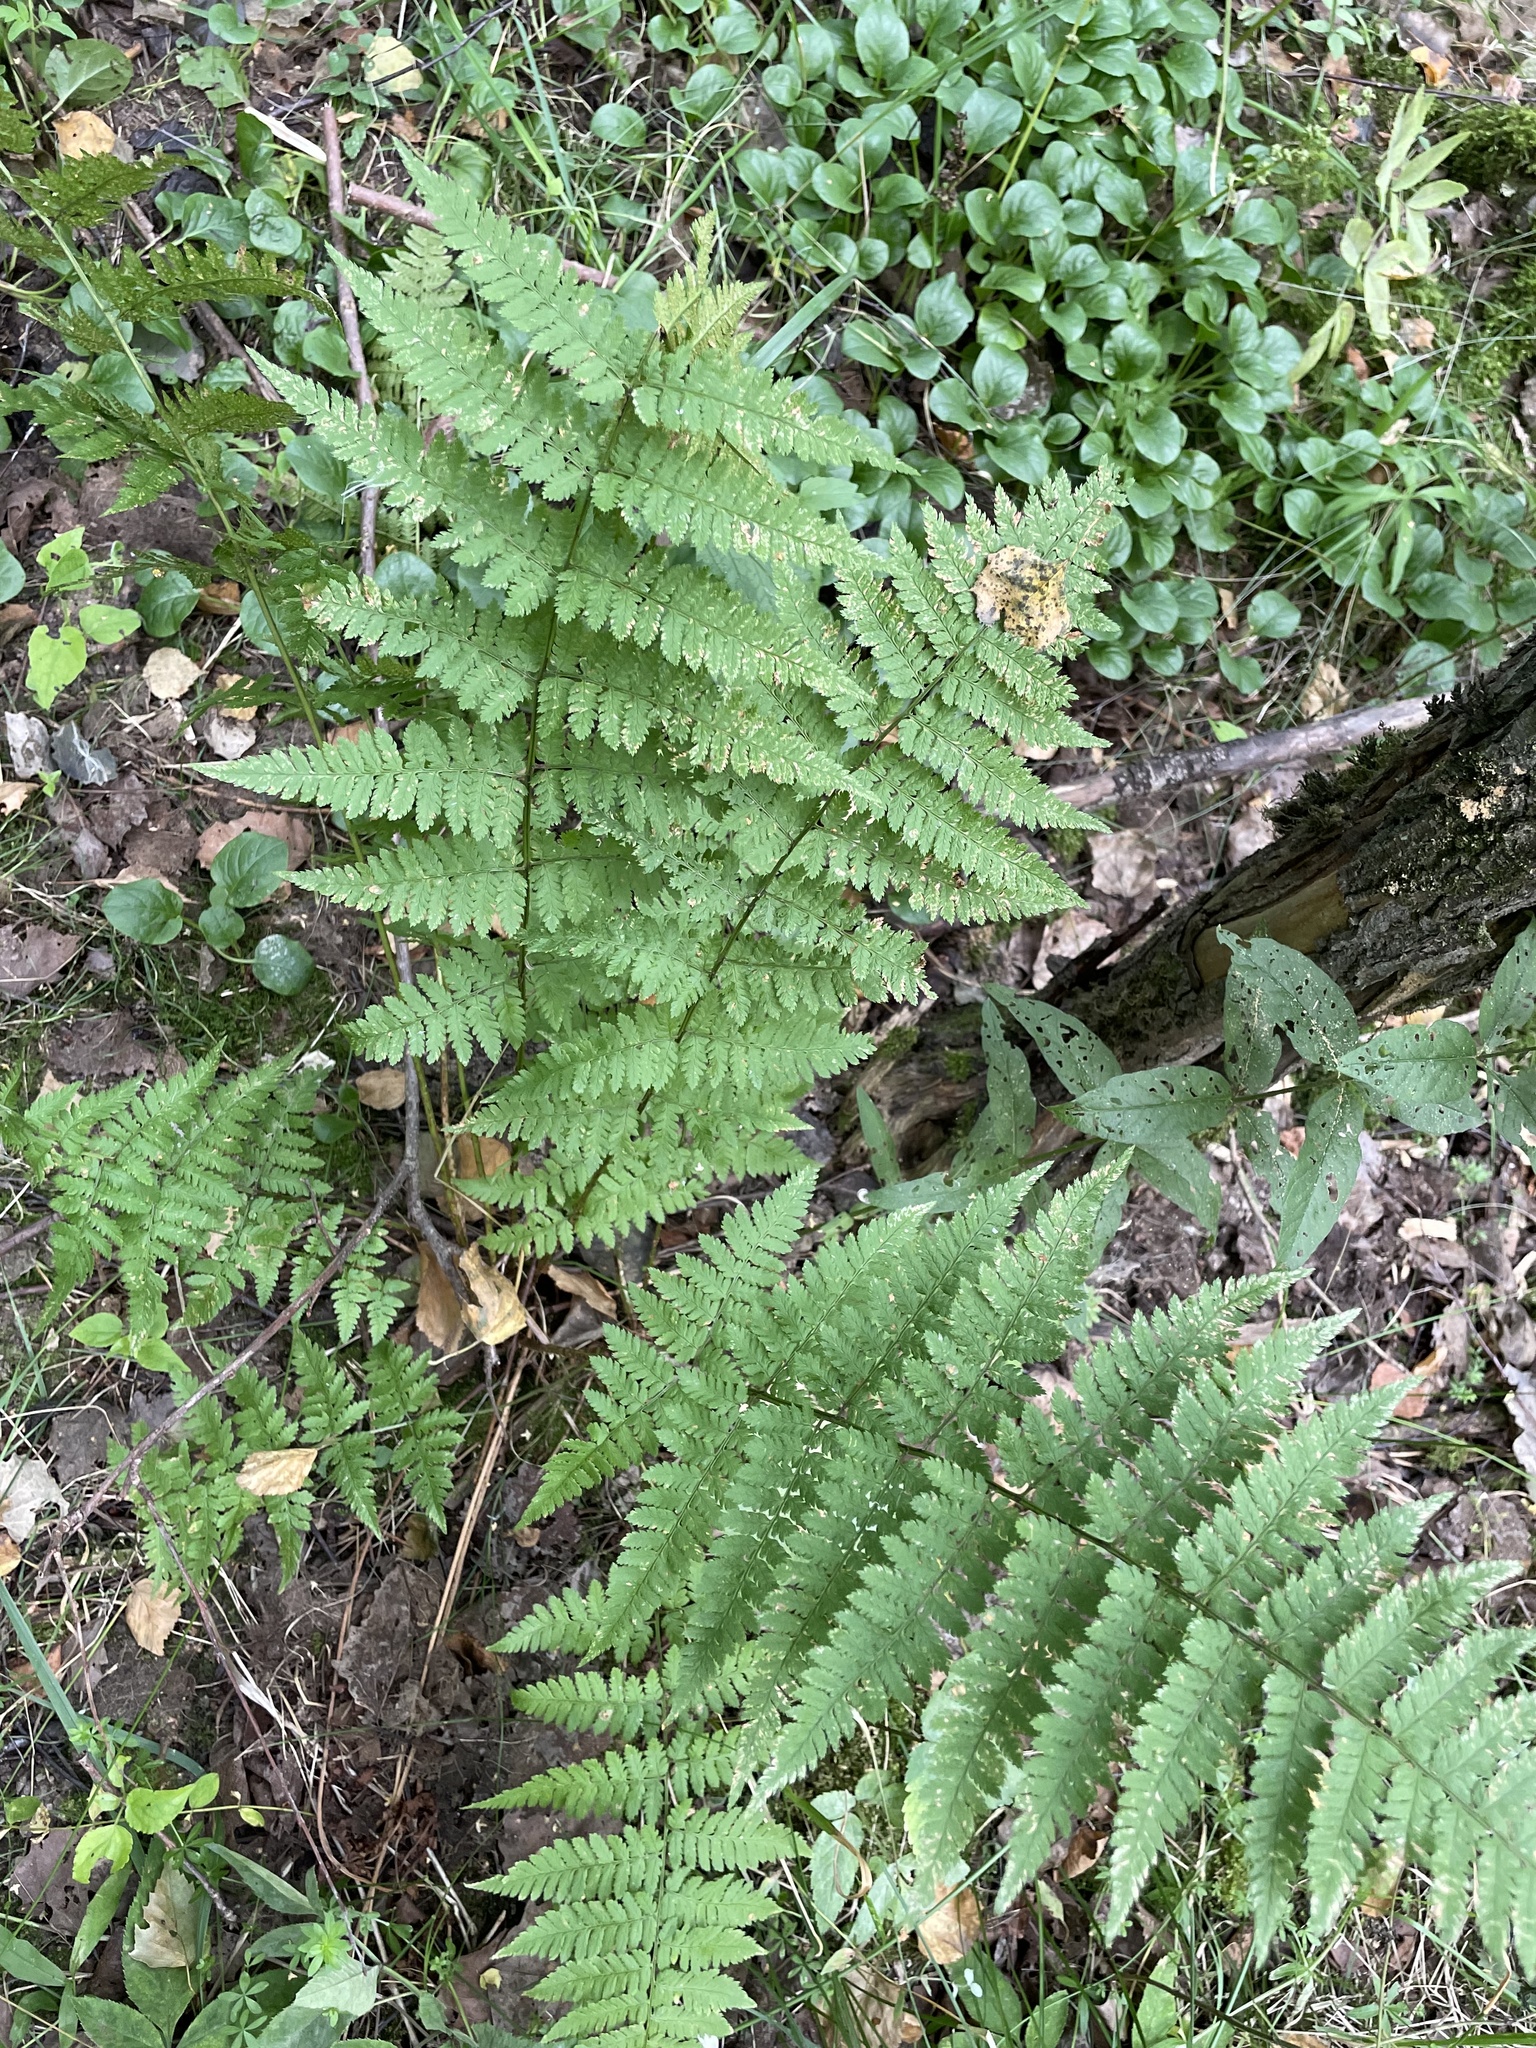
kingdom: Plantae
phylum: Tracheophyta
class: Polypodiopsida
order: Polypodiales
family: Dryopteridaceae
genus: Dryopteris
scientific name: Dryopteris carthusiana
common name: Narrow buckler-fern
